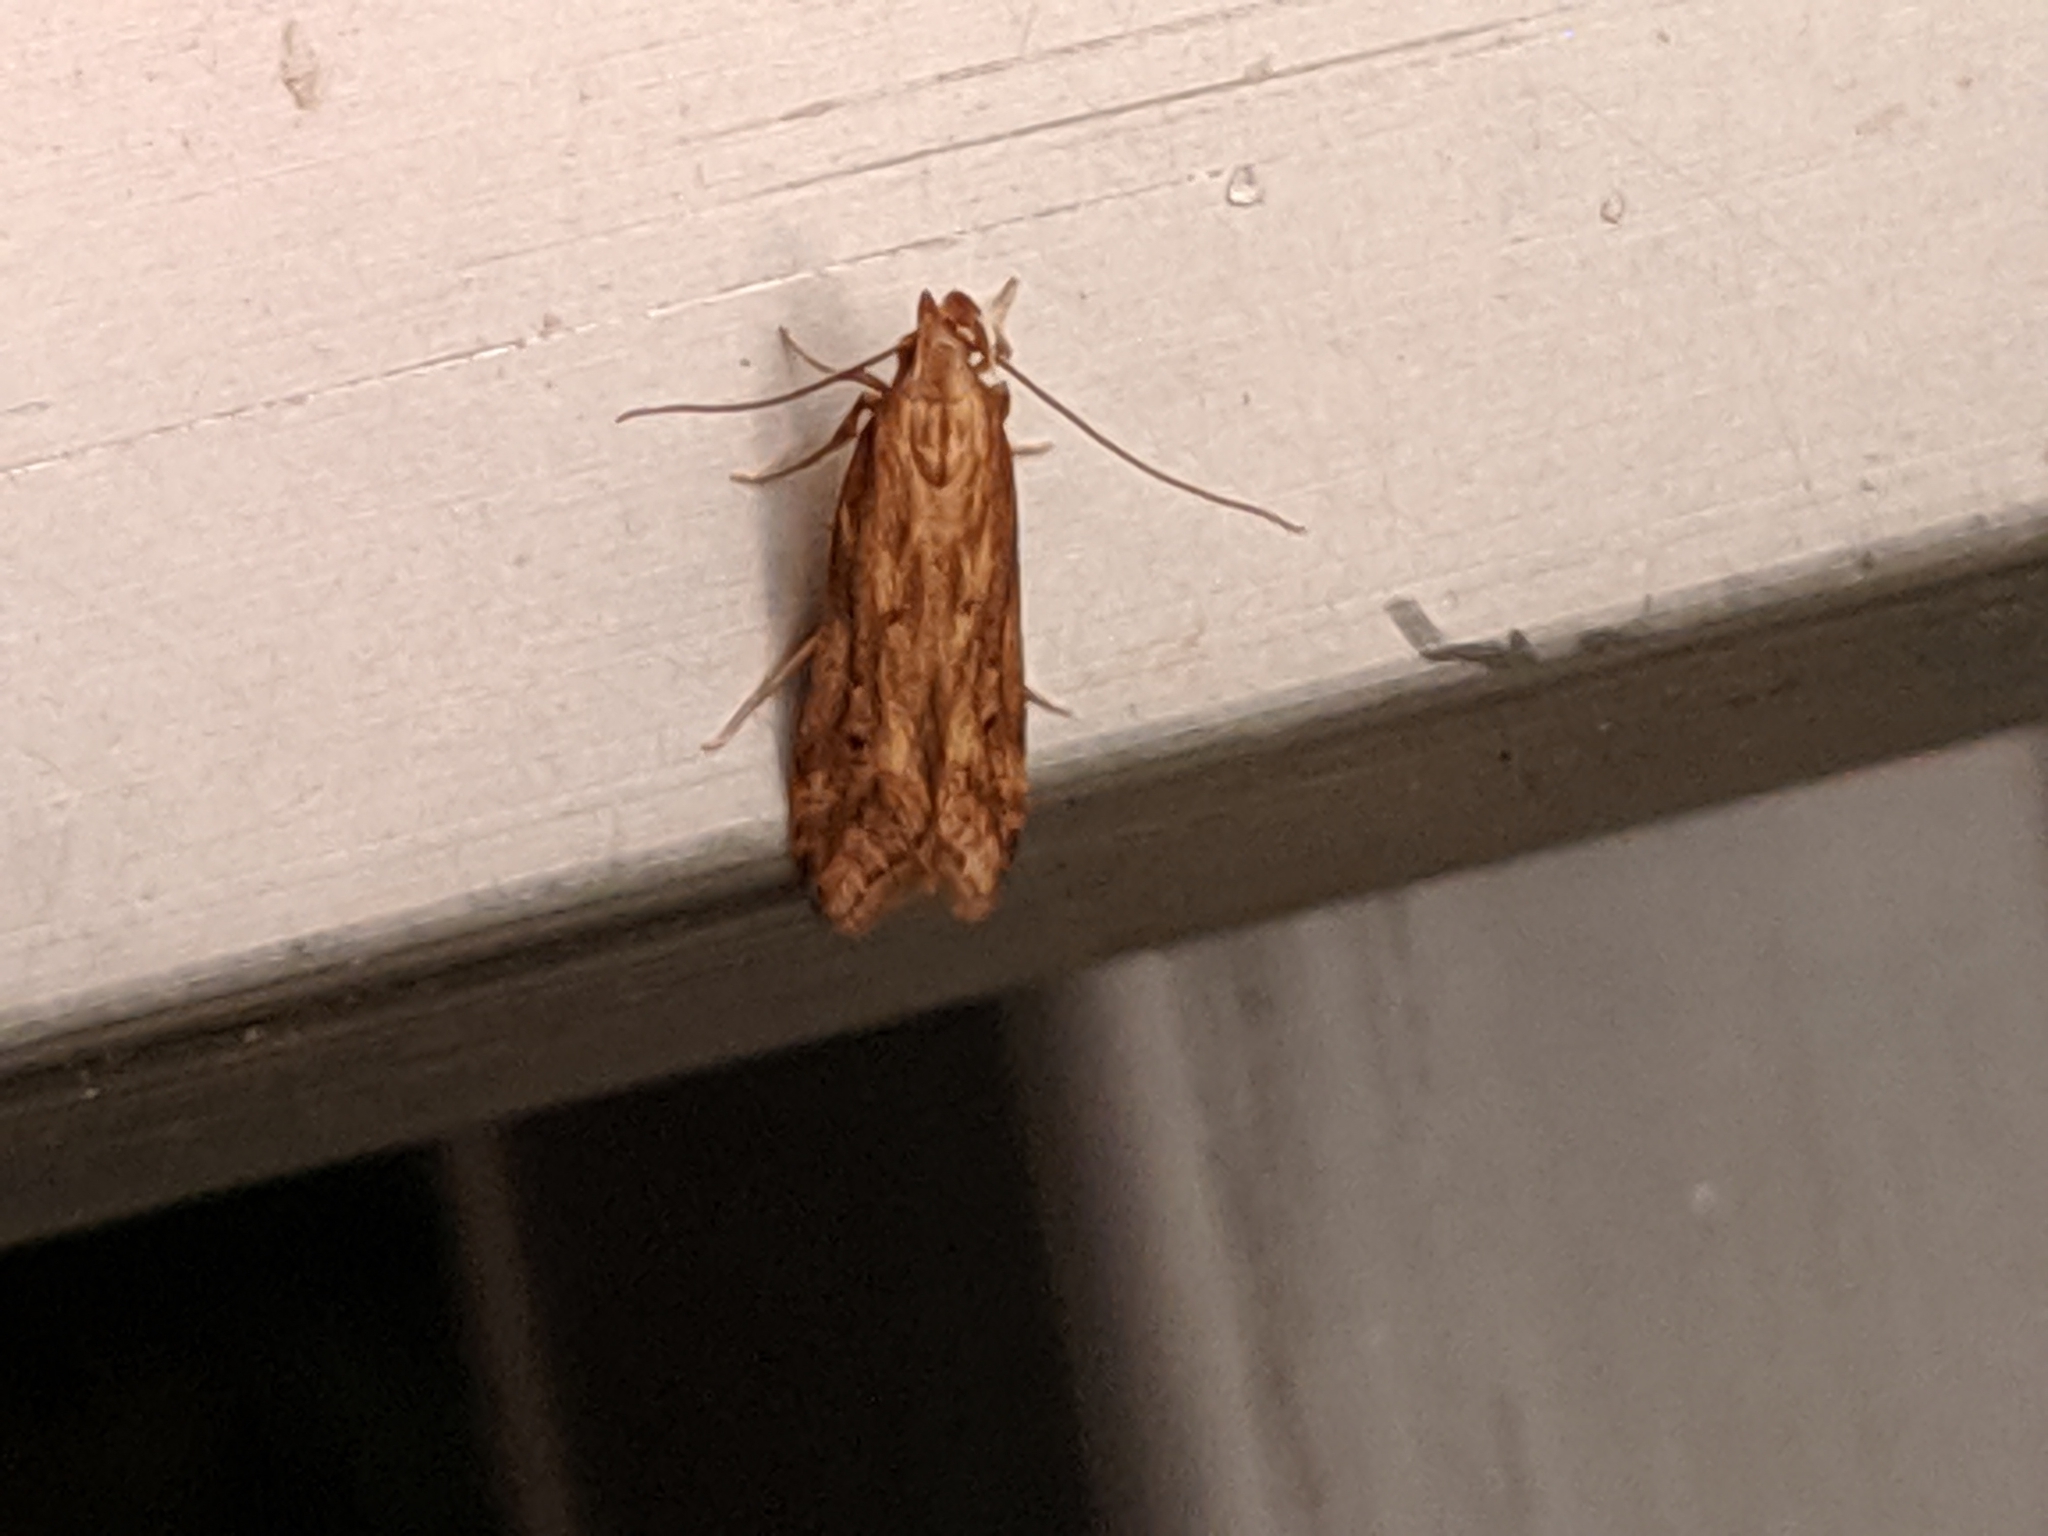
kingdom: Animalia
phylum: Arthropoda
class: Insecta
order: Lepidoptera
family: Gelechiidae
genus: Metzneria
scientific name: Metzneria lappella
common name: Burdock neb
